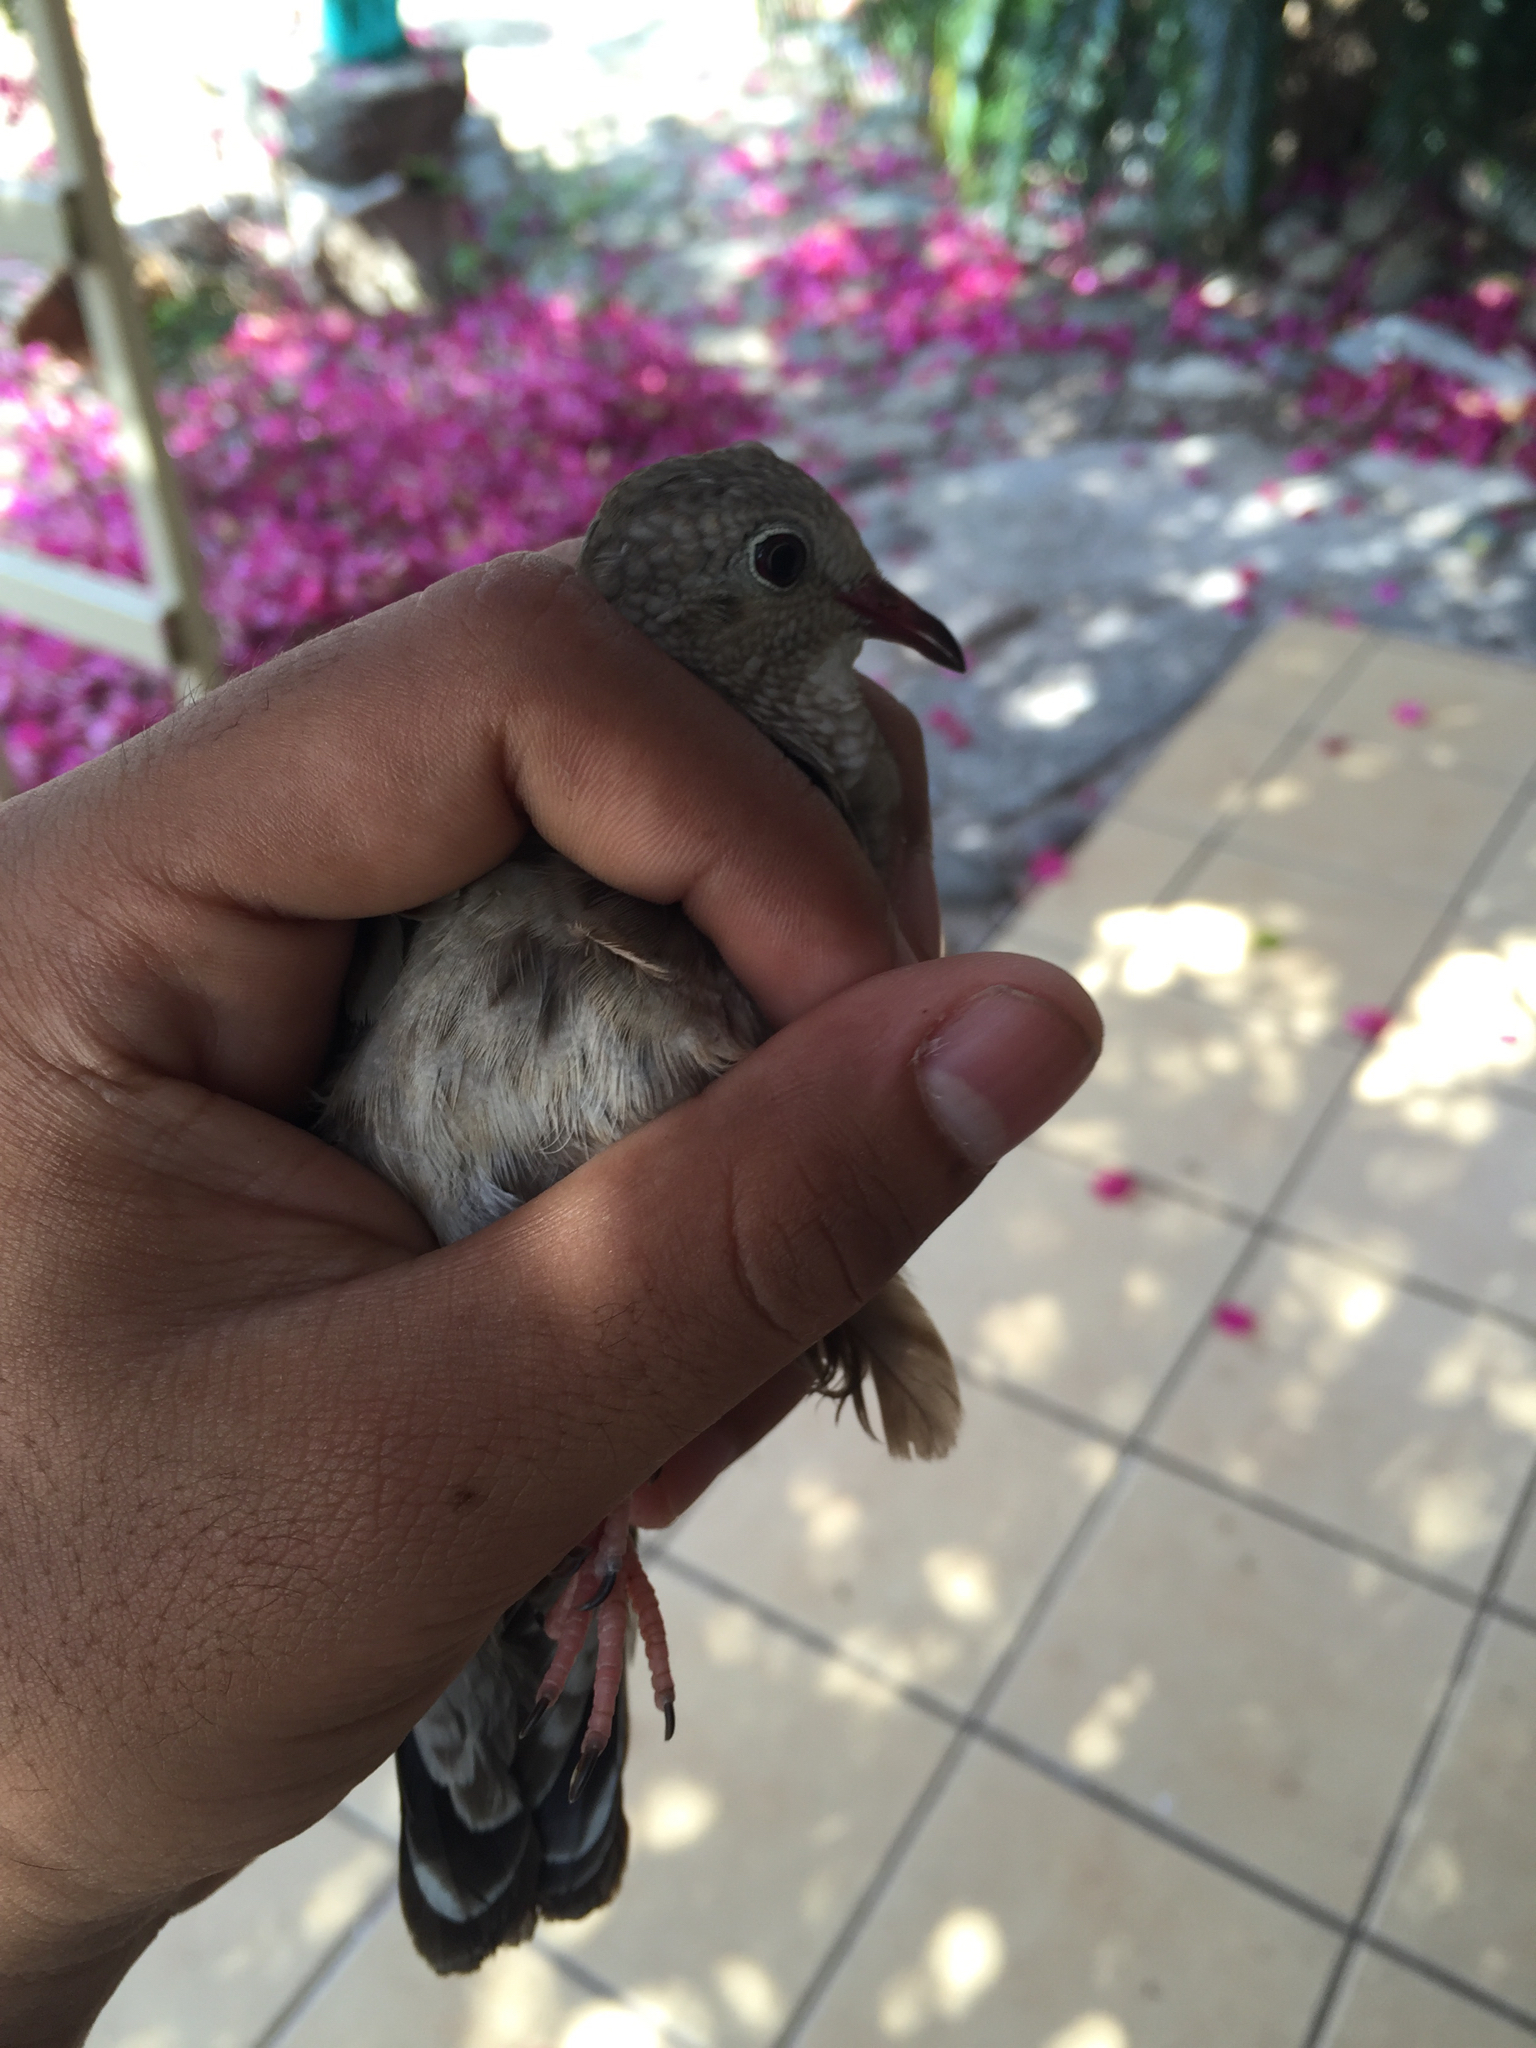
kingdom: Animalia
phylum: Chordata
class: Aves
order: Columbiformes
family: Columbidae
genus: Columbina
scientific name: Columbina passerina
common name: Common ground-dove
